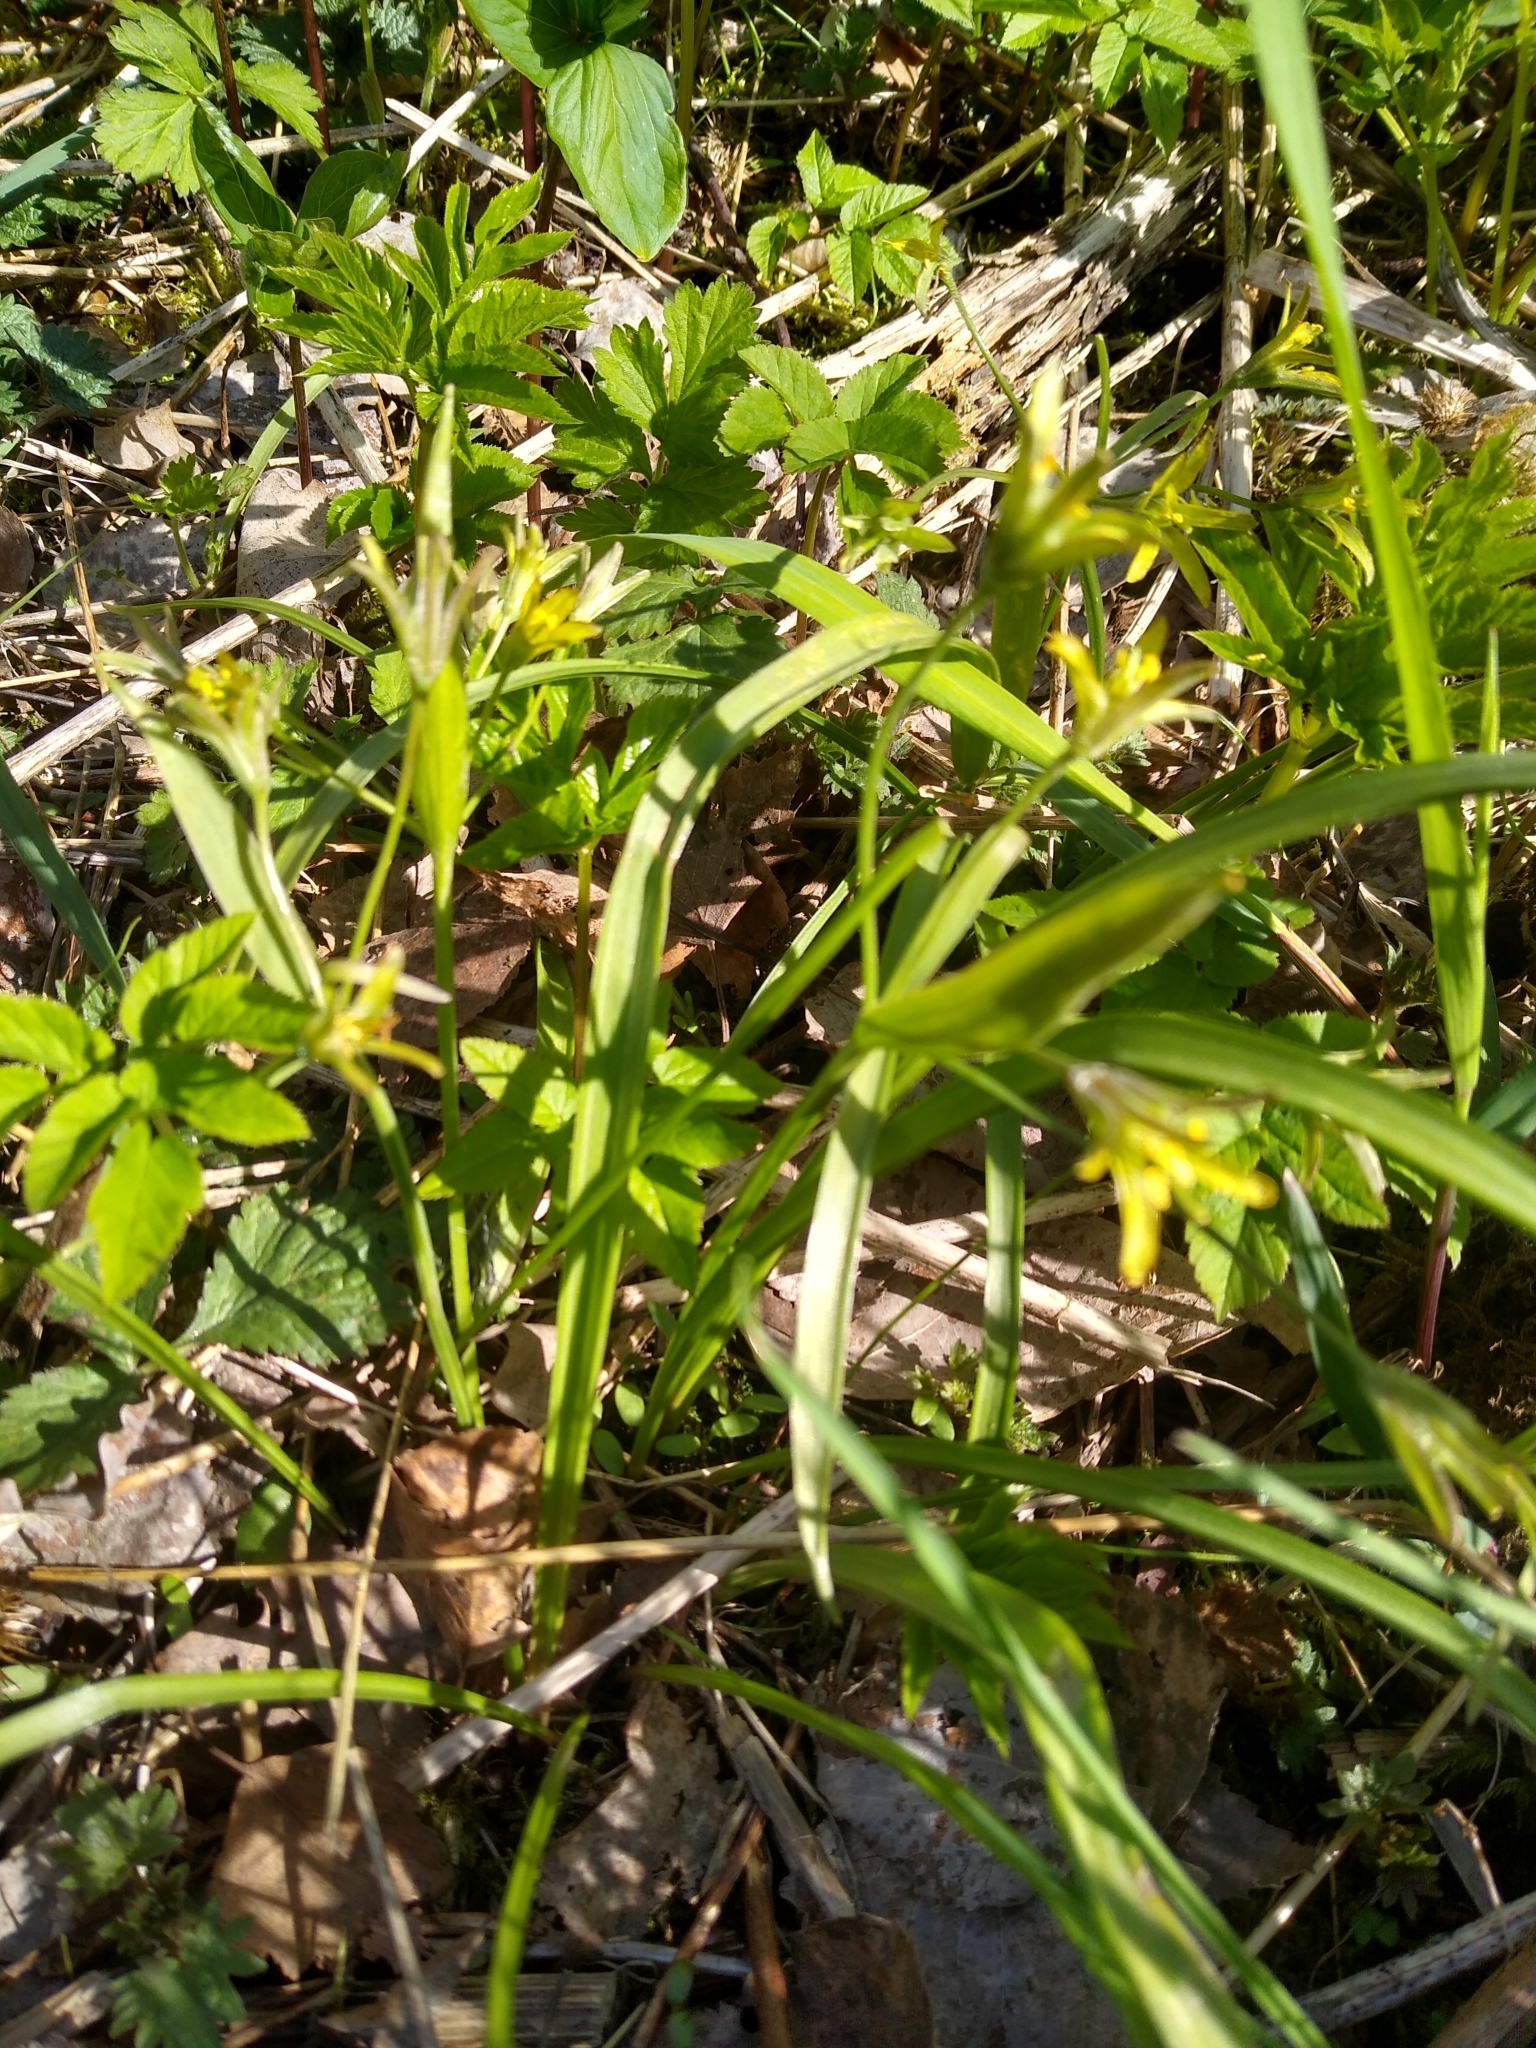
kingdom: Plantae
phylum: Tracheophyta
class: Liliopsida
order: Liliales
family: Liliaceae
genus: Gagea
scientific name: Gagea lutea
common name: Yellow star-of-bethlehem
